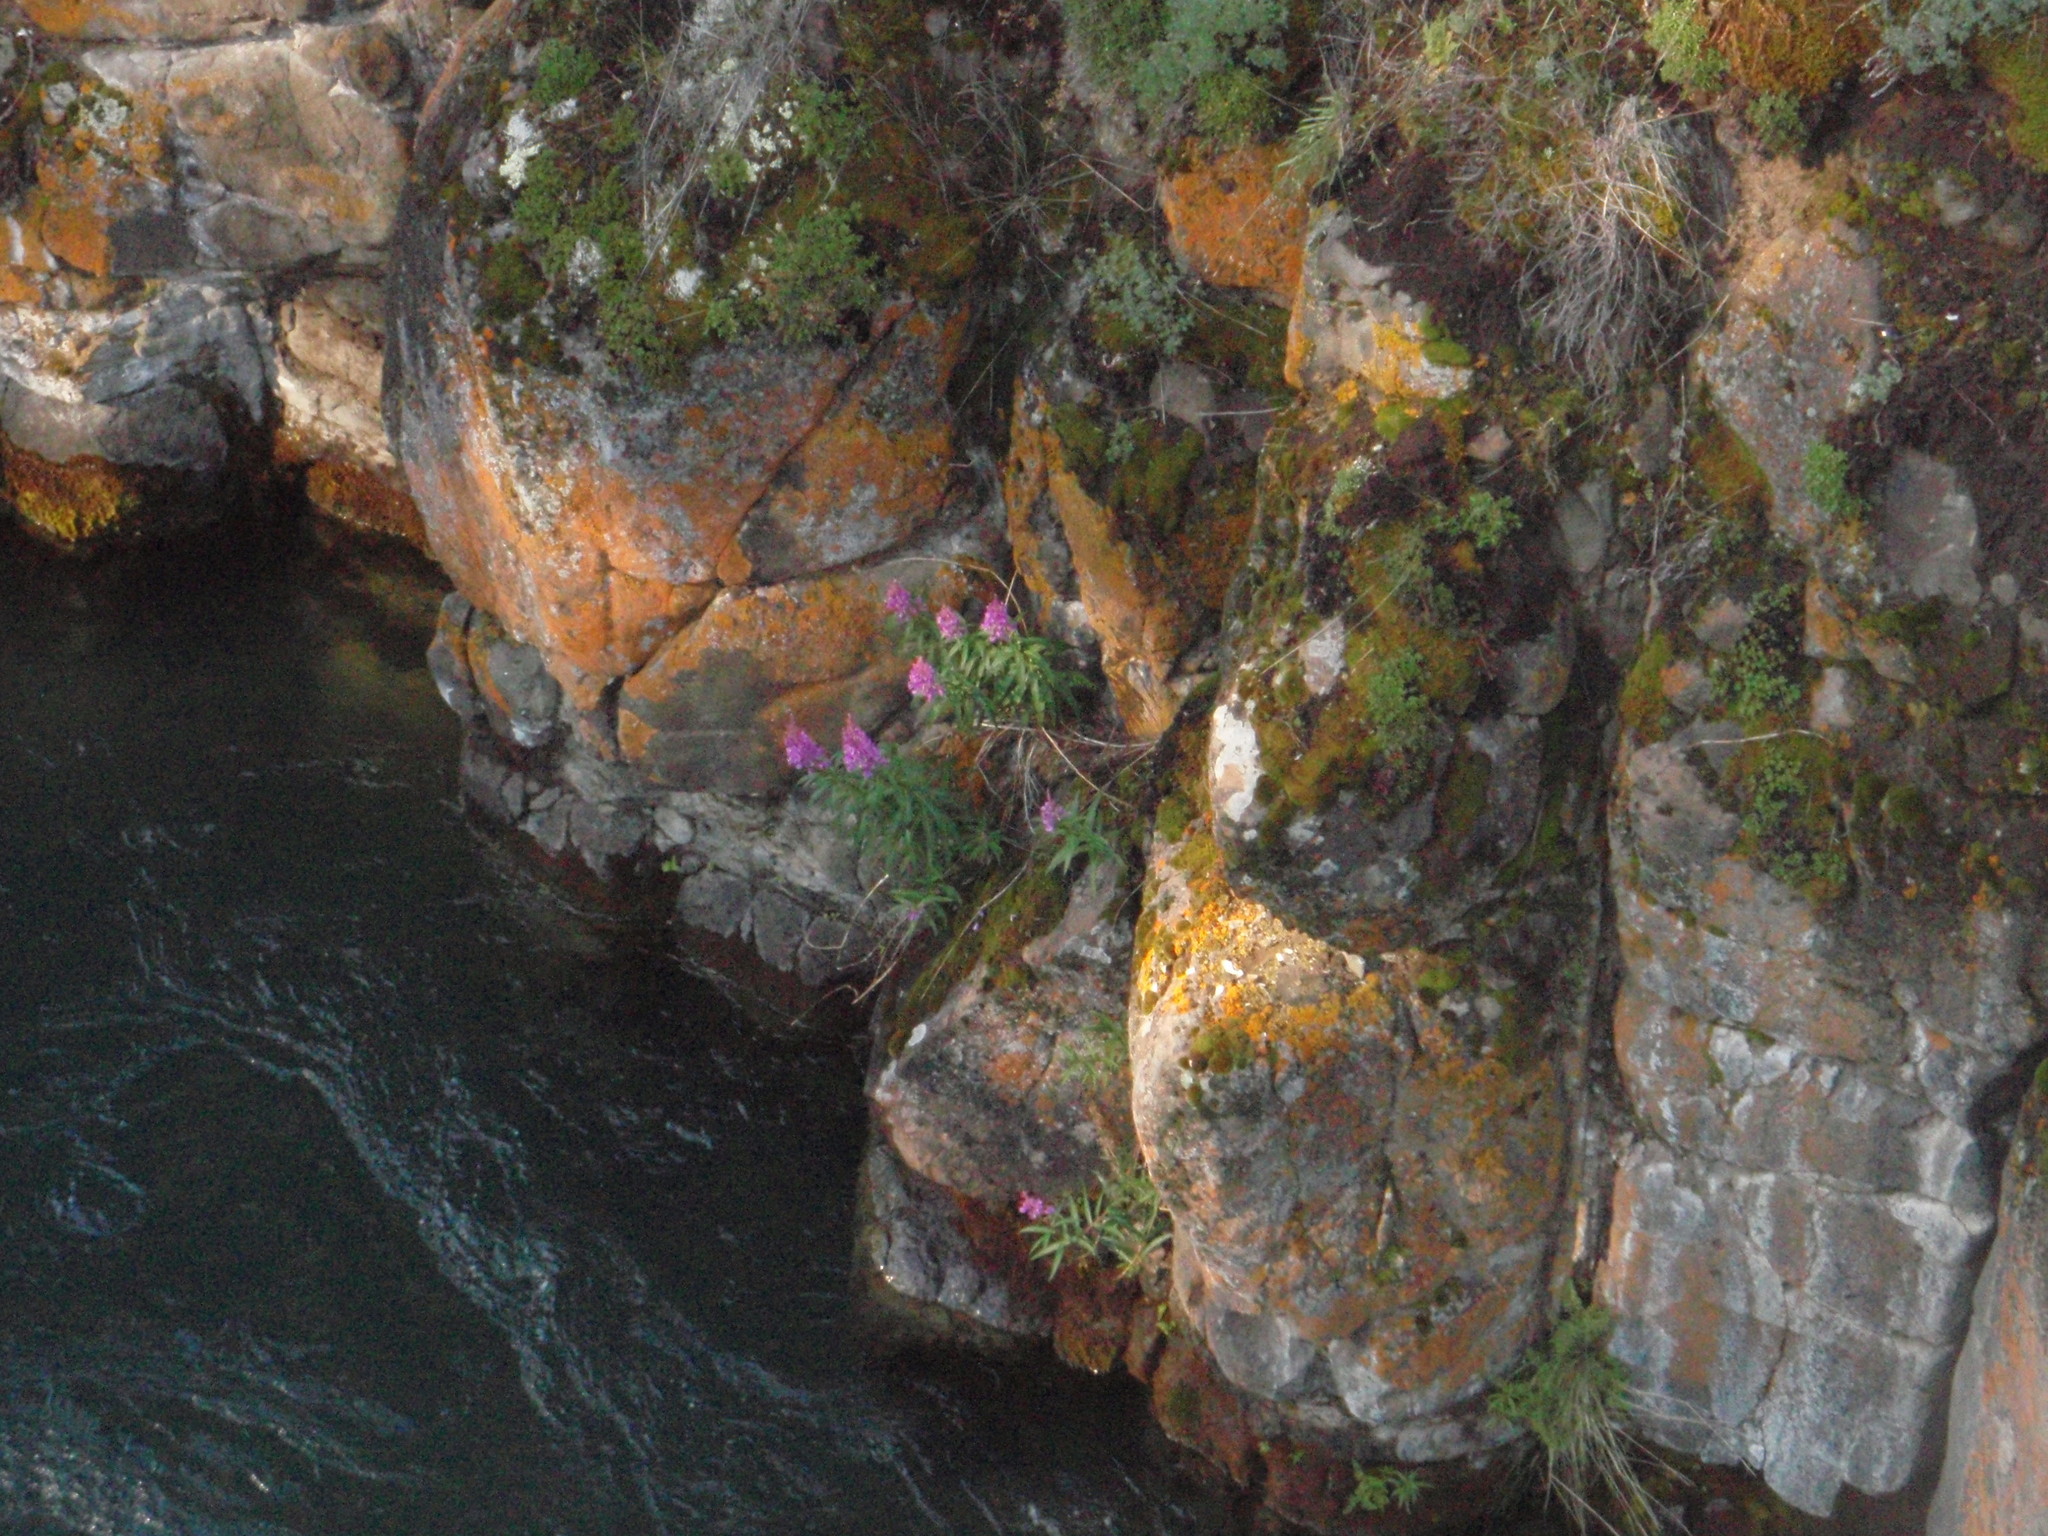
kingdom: Plantae
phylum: Tracheophyta
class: Magnoliopsida
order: Myrtales
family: Onagraceae
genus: Chamaenerion
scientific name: Chamaenerion angustifolium
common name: Fireweed
